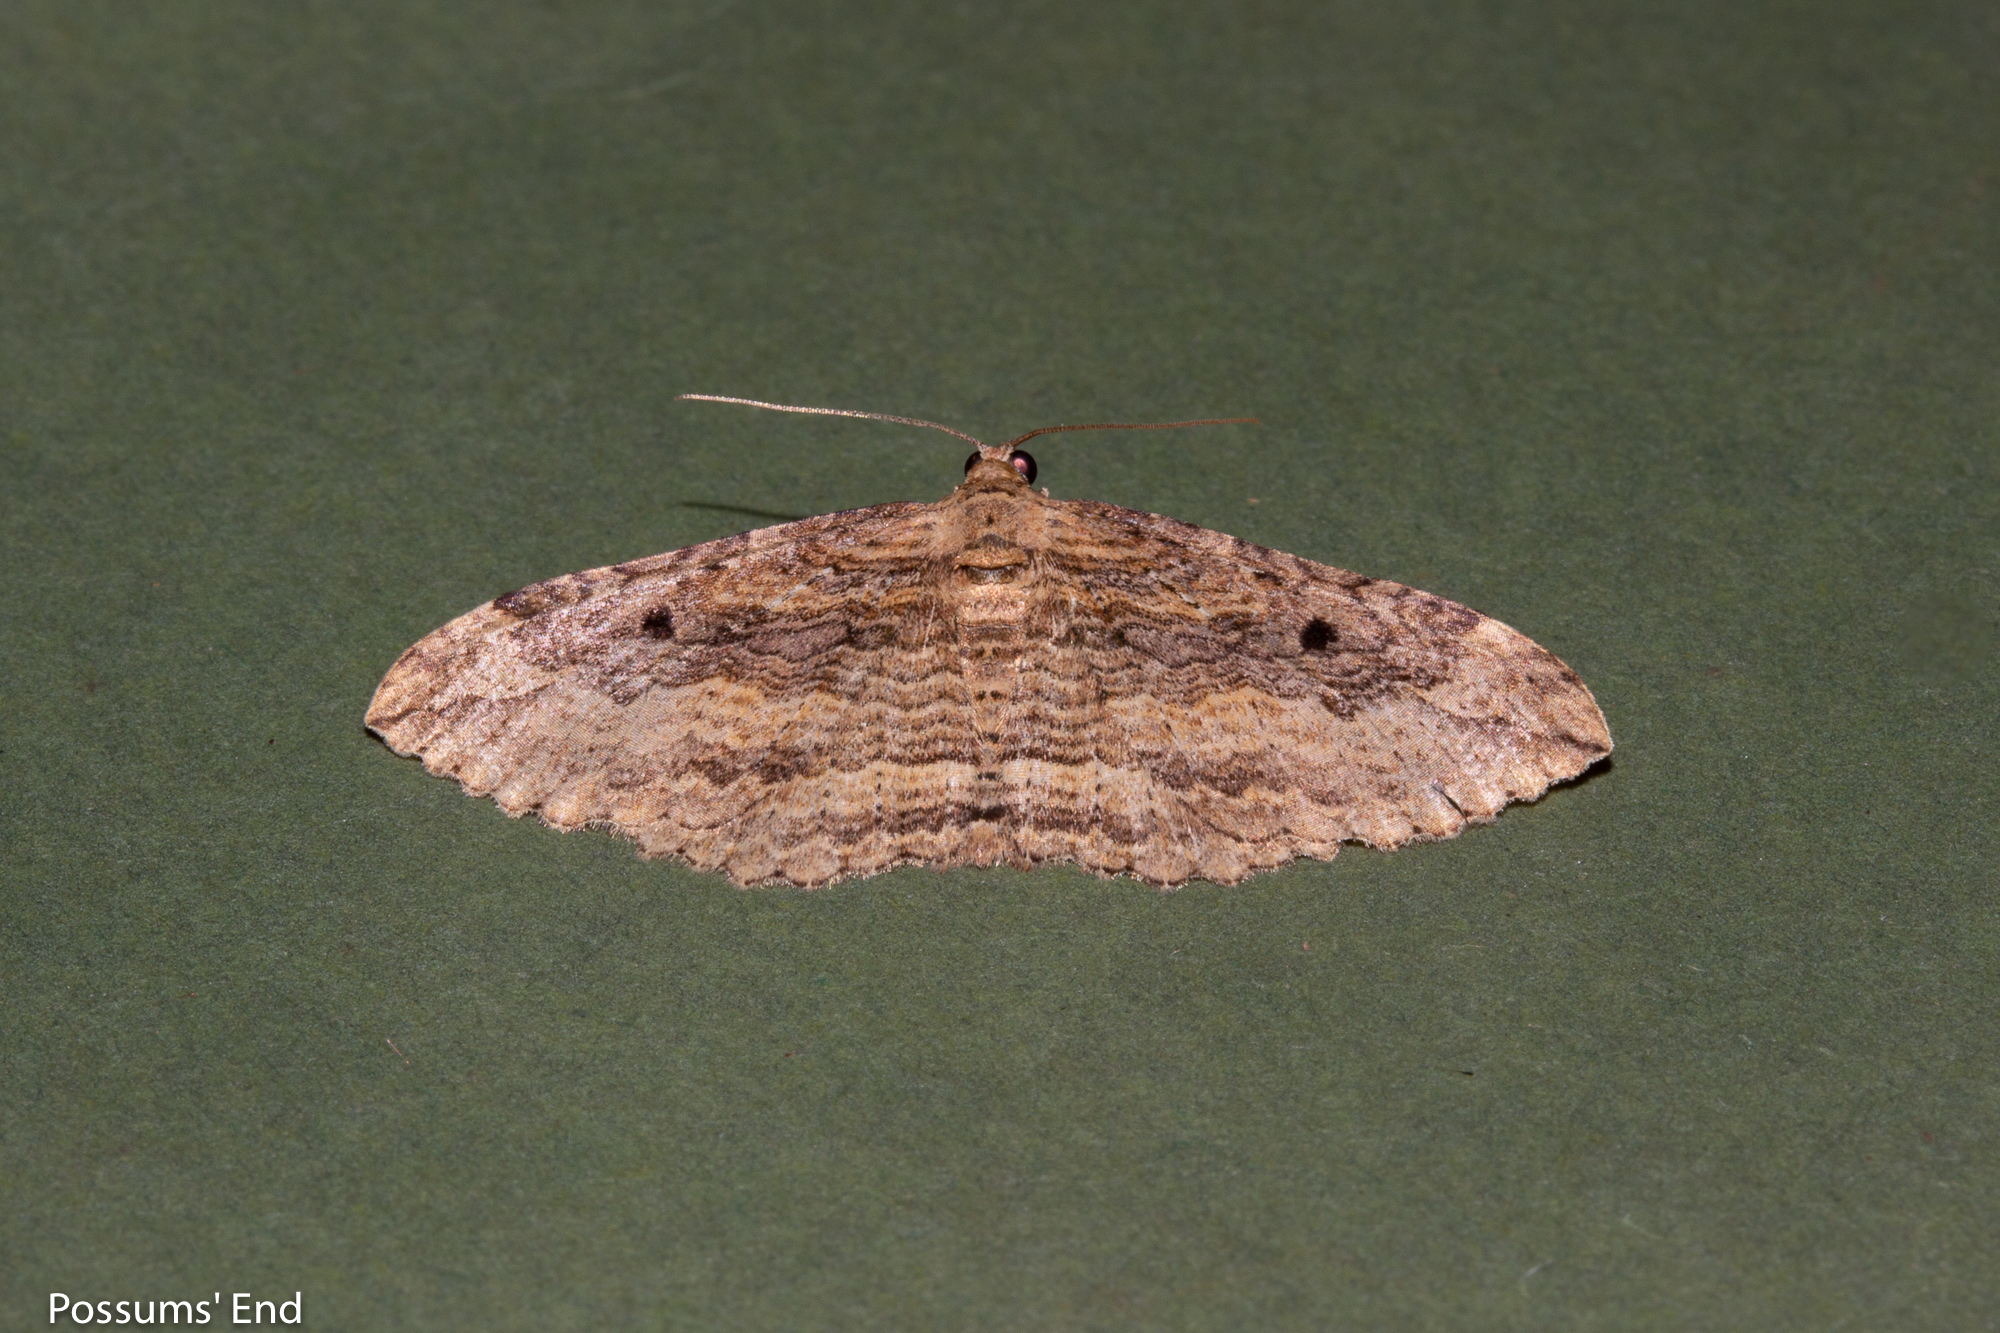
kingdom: Animalia
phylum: Arthropoda
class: Insecta
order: Lepidoptera
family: Geometridae
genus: Austrocidaria
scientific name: Austrocidaria gobiata
